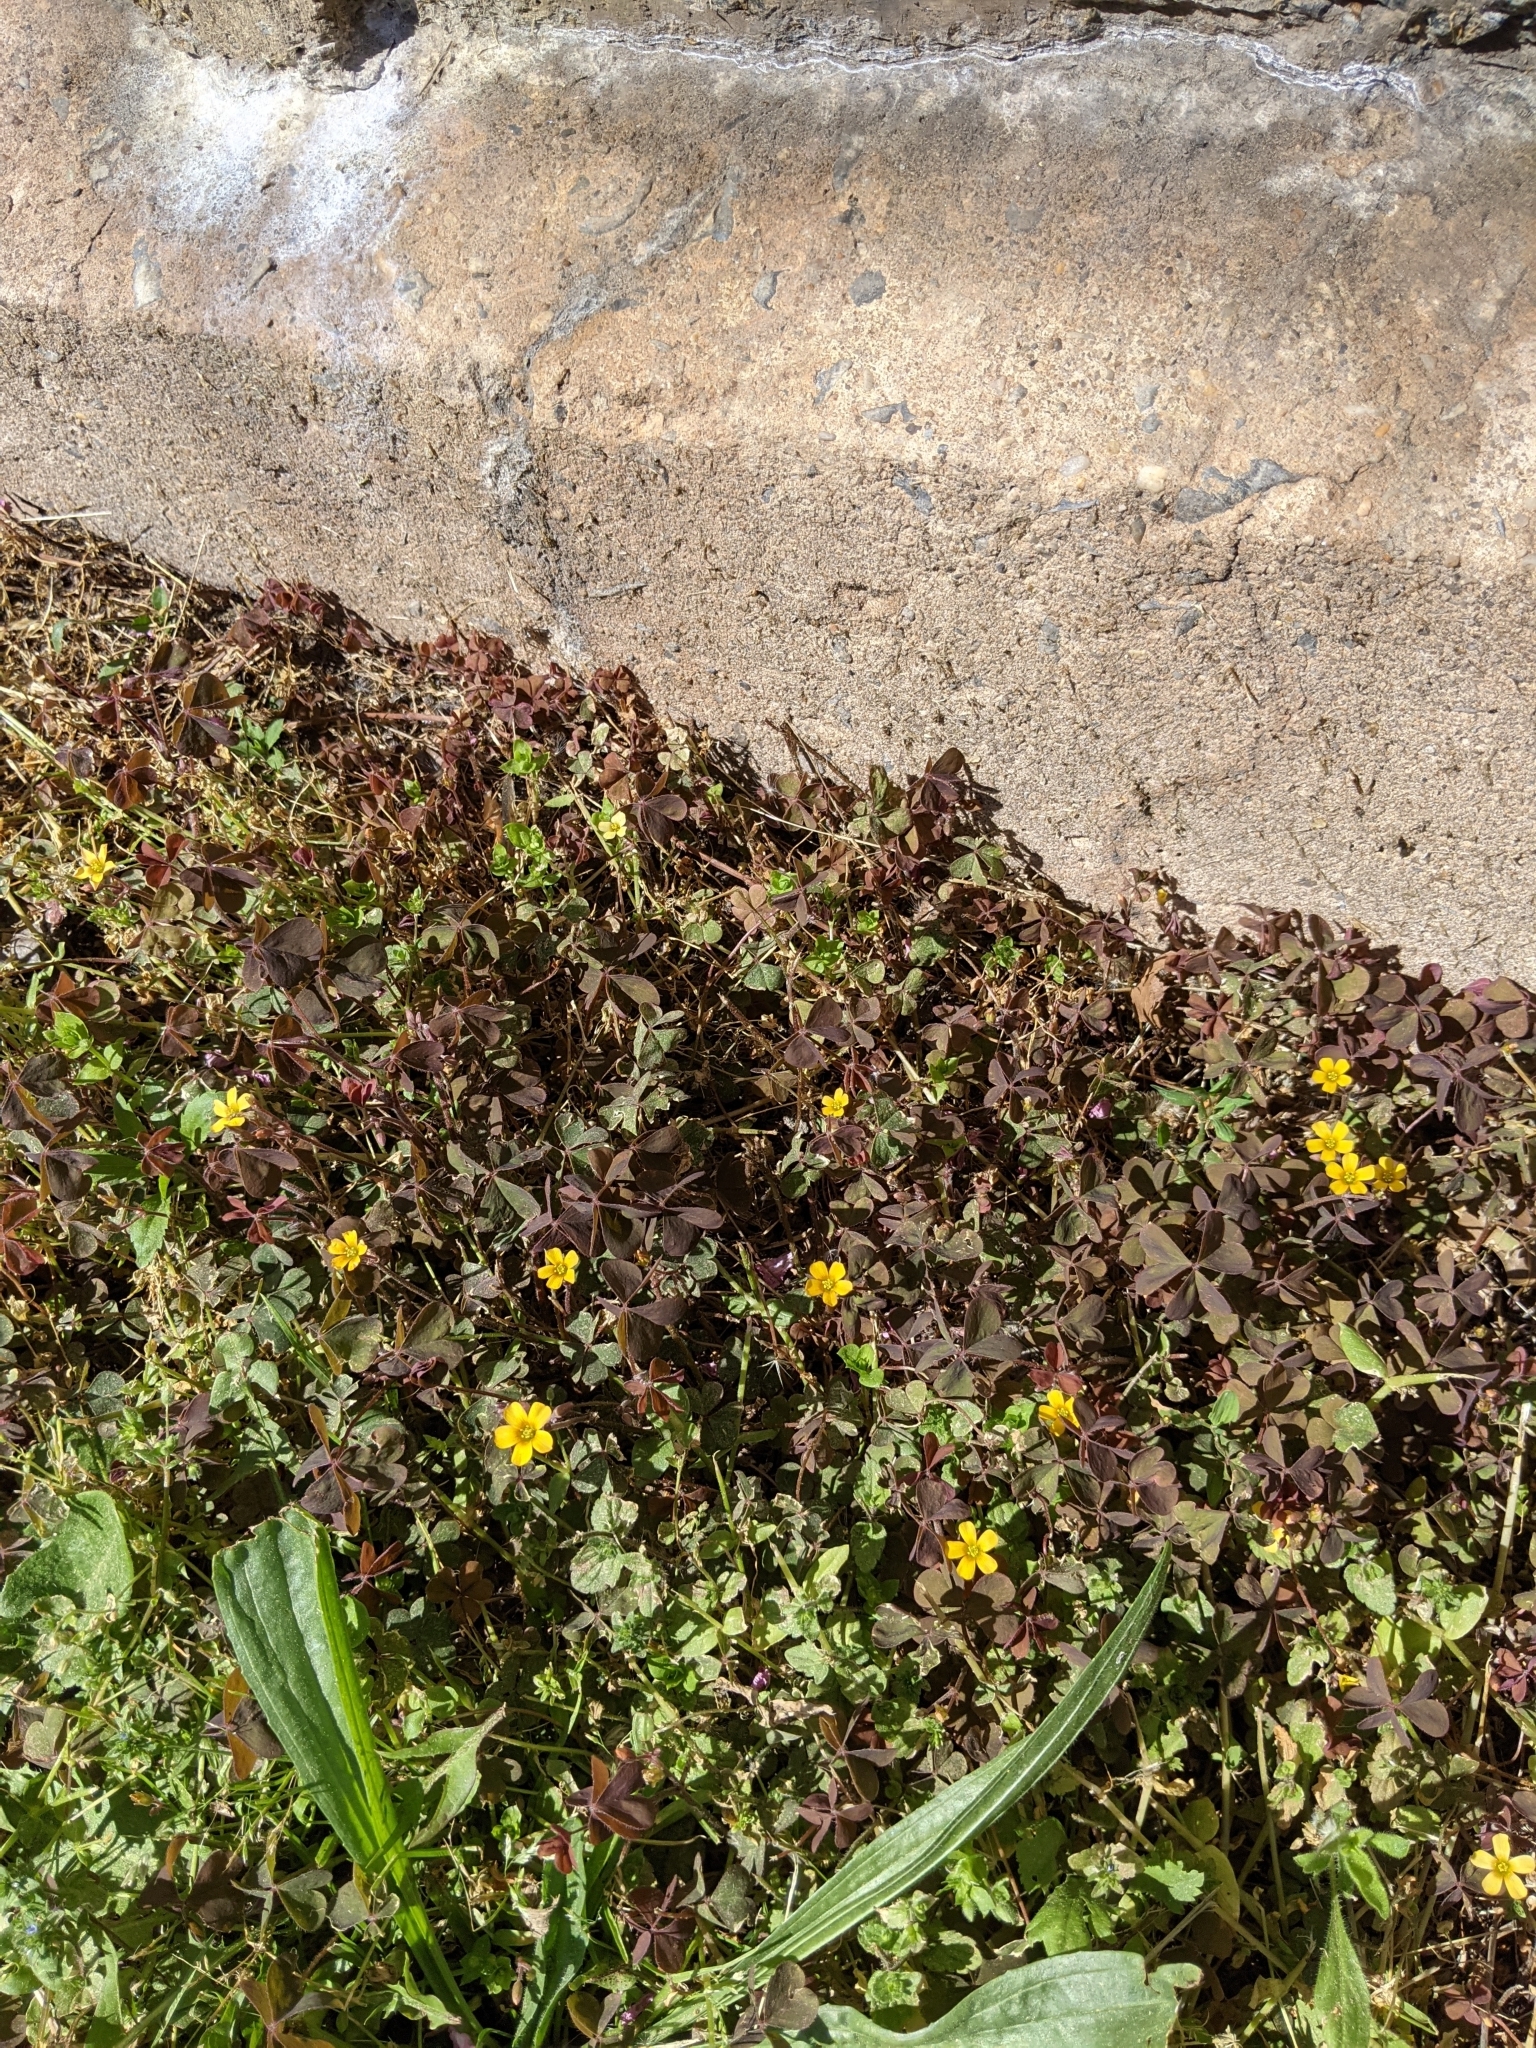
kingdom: Plantae
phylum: Tracheophyta
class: Magnoliopsida
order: Oxalidales
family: Oxalidaceae
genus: Oxalis
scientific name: Oxalis corniculata
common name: Procumbent yellow-sorrel
